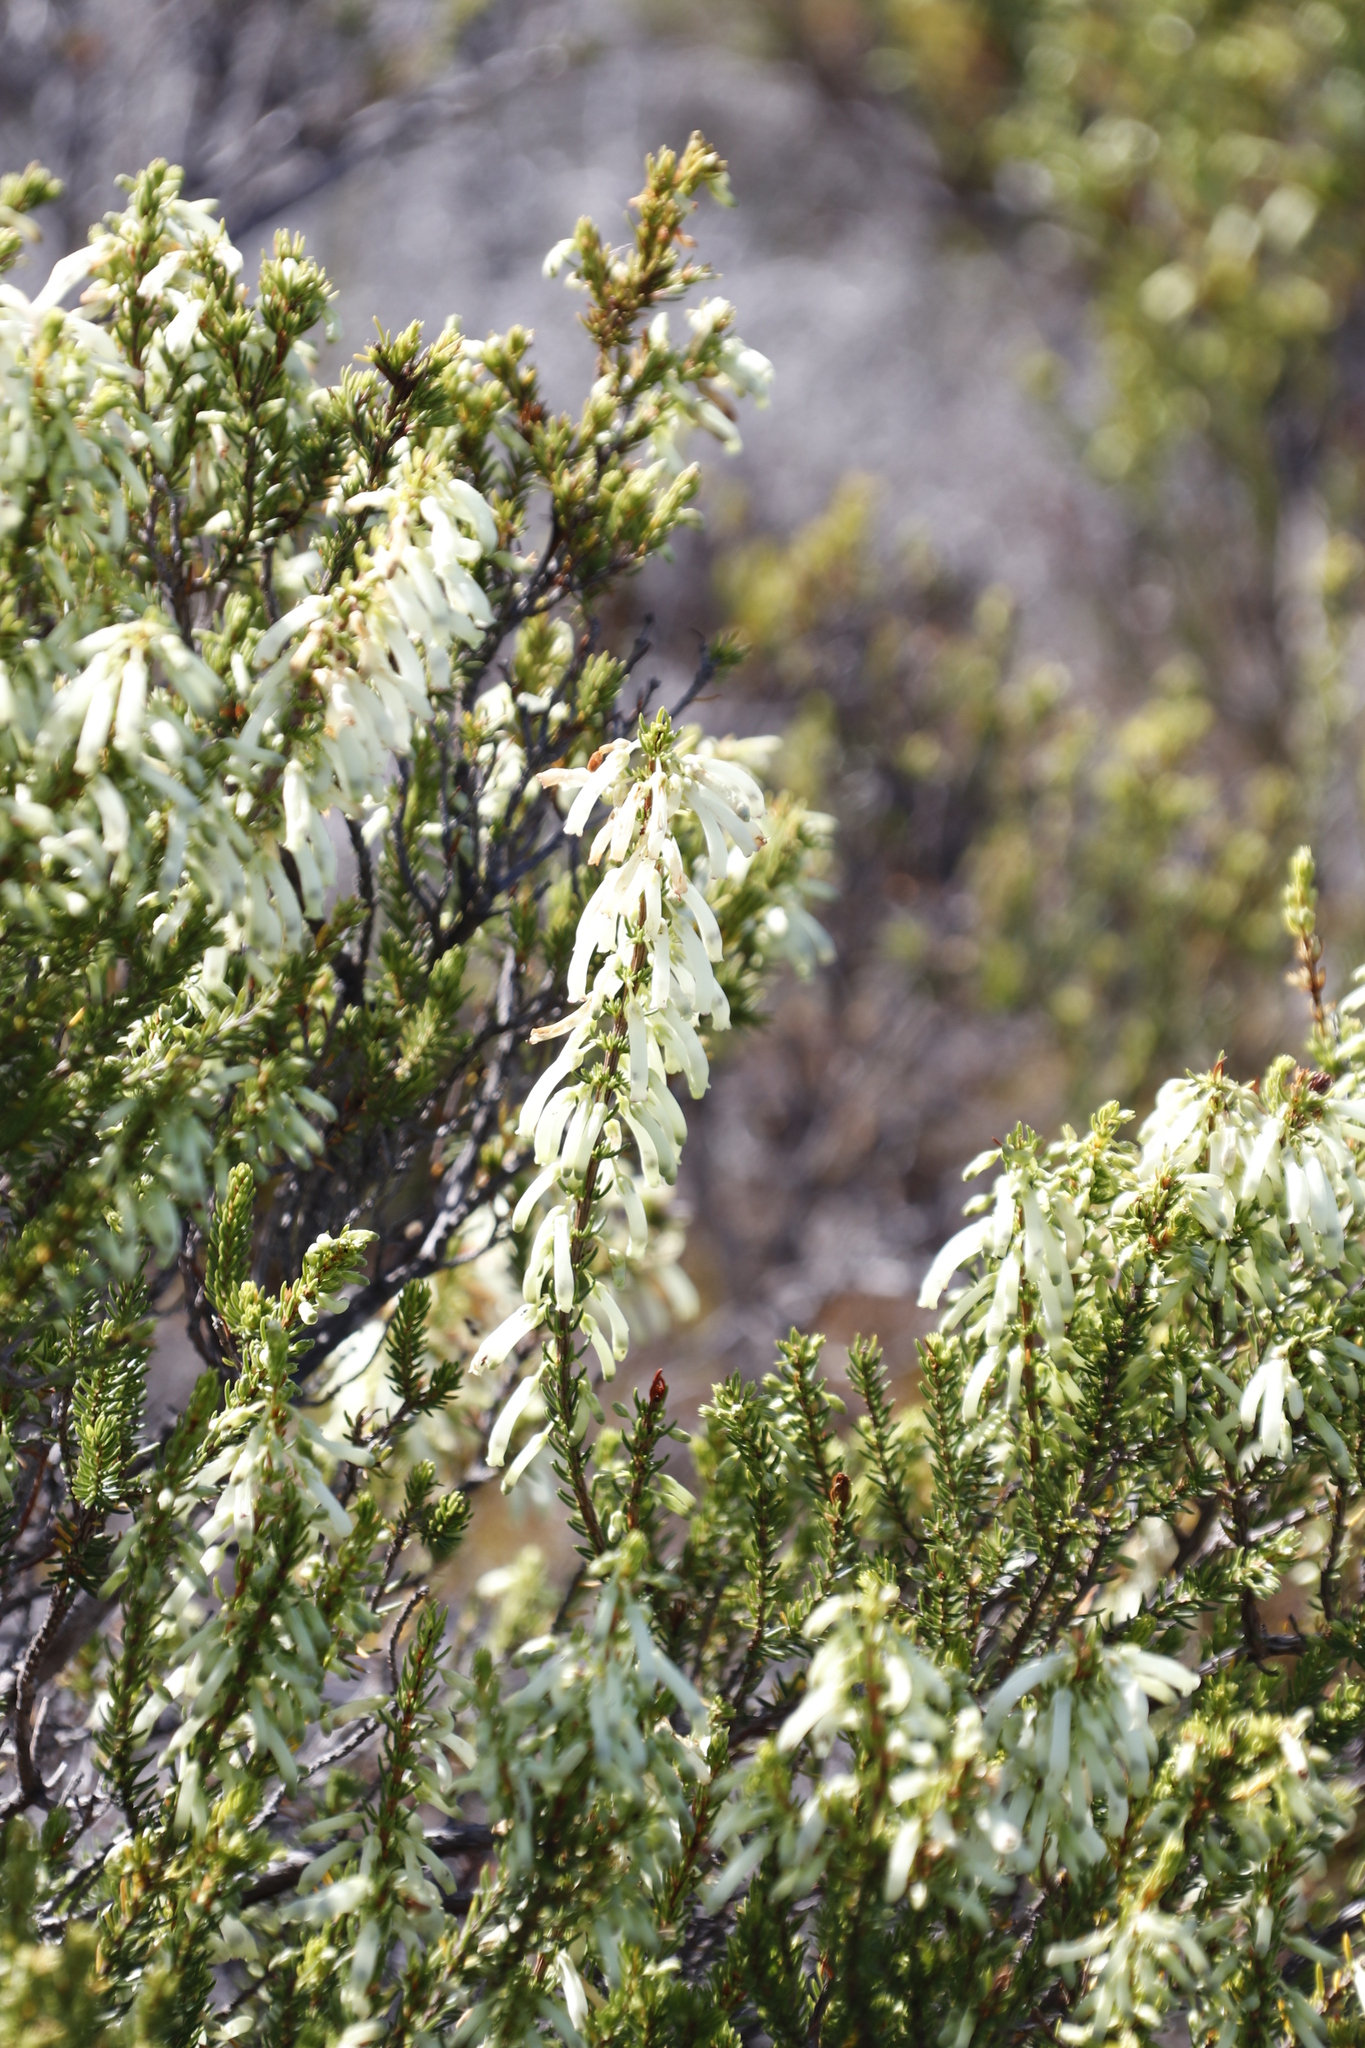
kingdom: Plantae
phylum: Tracheophyta
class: Magnoliopsida
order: Ericales
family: Ericaceae
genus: Erica
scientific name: Erica mammosa
